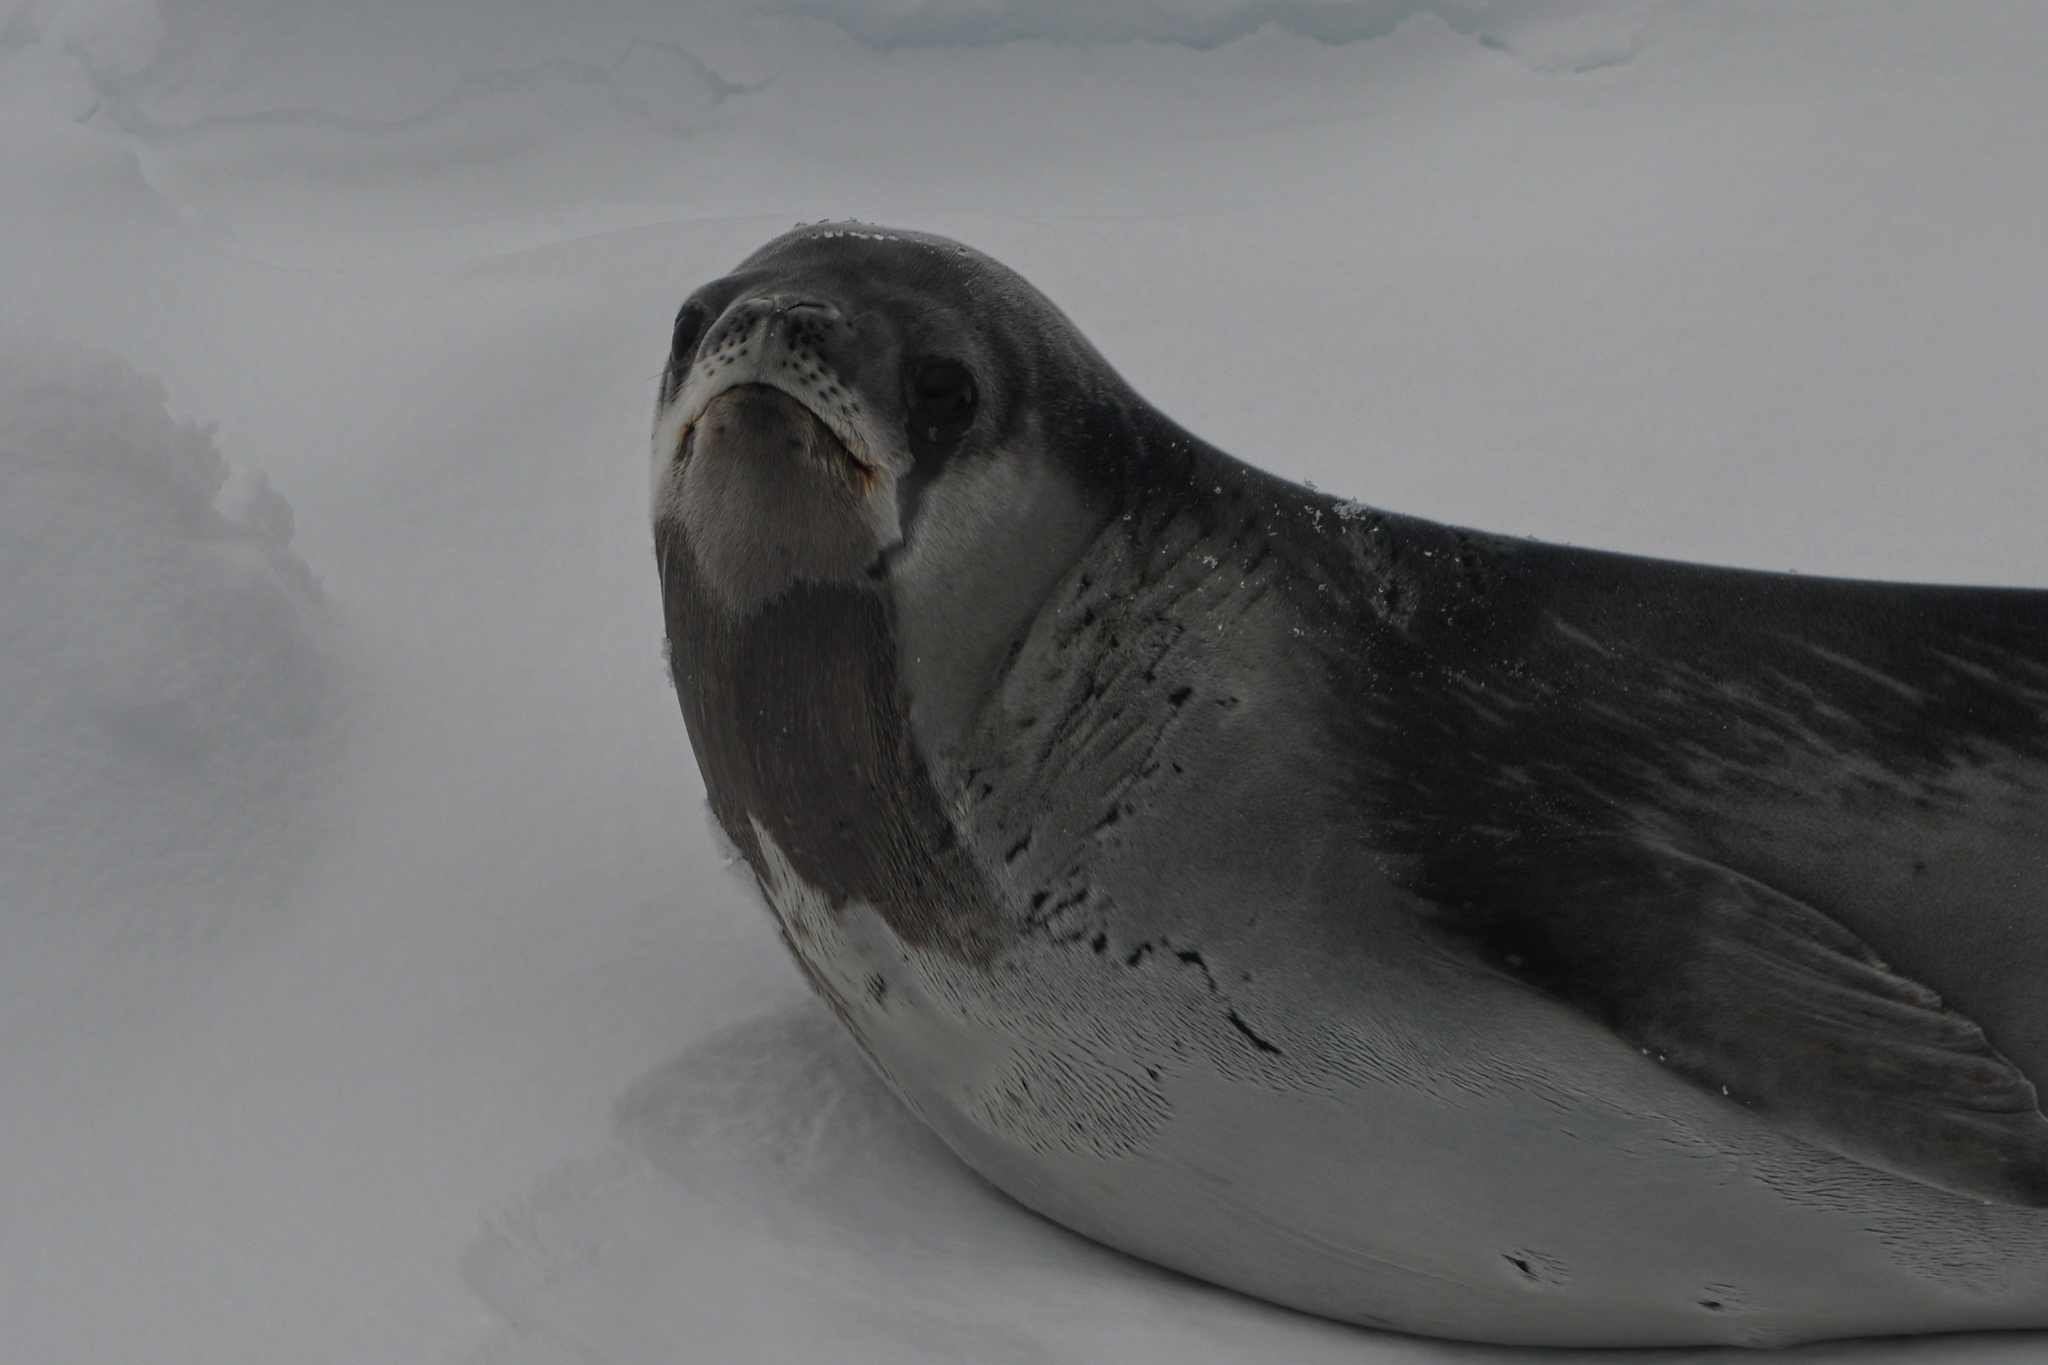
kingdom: Animalia
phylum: Chordata
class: Mammalia
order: Carnivora
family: Phocidae
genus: Ommatophoca
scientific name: Ommatophoca rossii
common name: Ross seal
